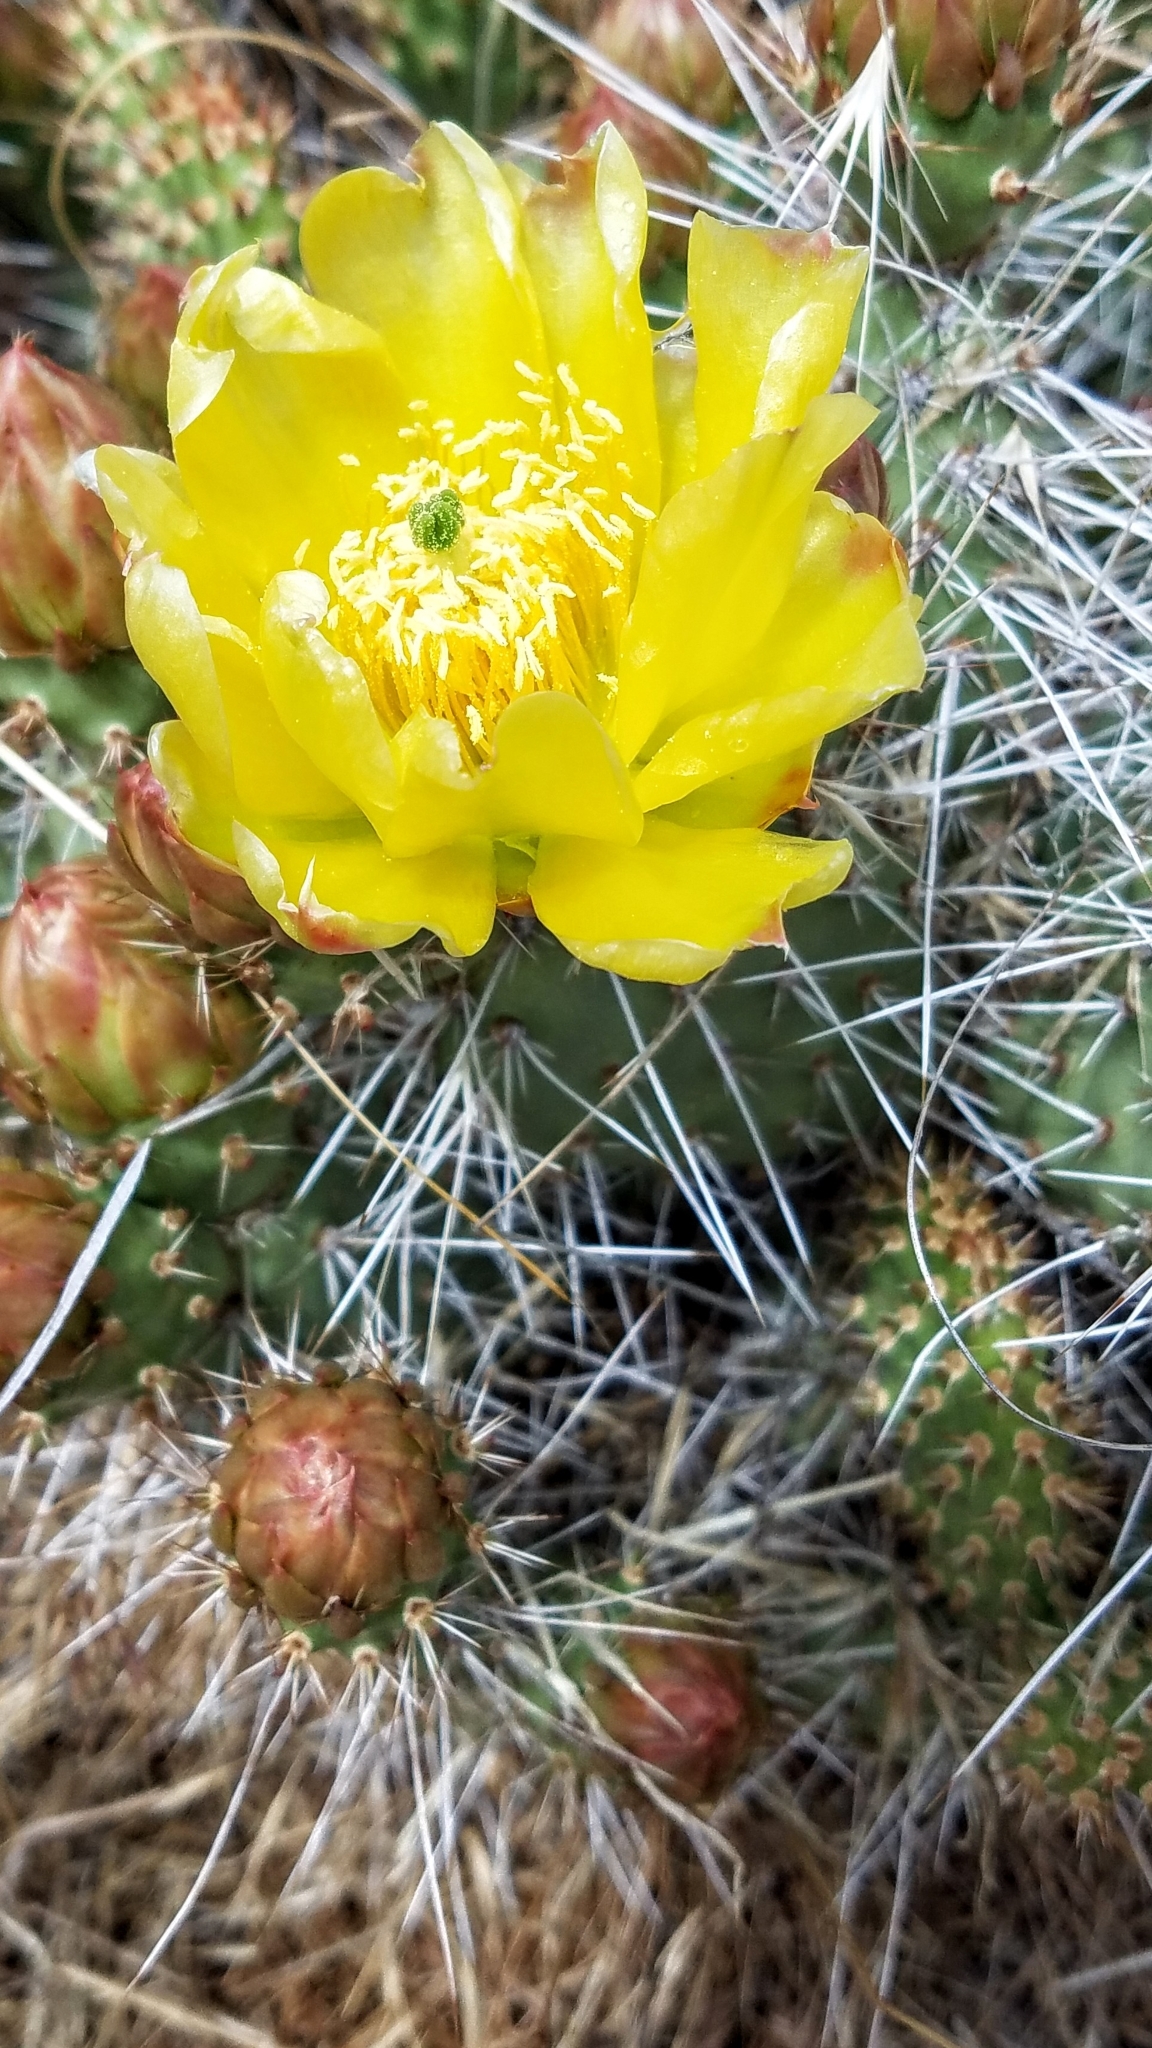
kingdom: Plantae
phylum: Tracheophyta
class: Magnoliopsida
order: Caryophyllales
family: Cactaceae
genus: Opuntia
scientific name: Opuntia polyacantha
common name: Plains prickly-pear
